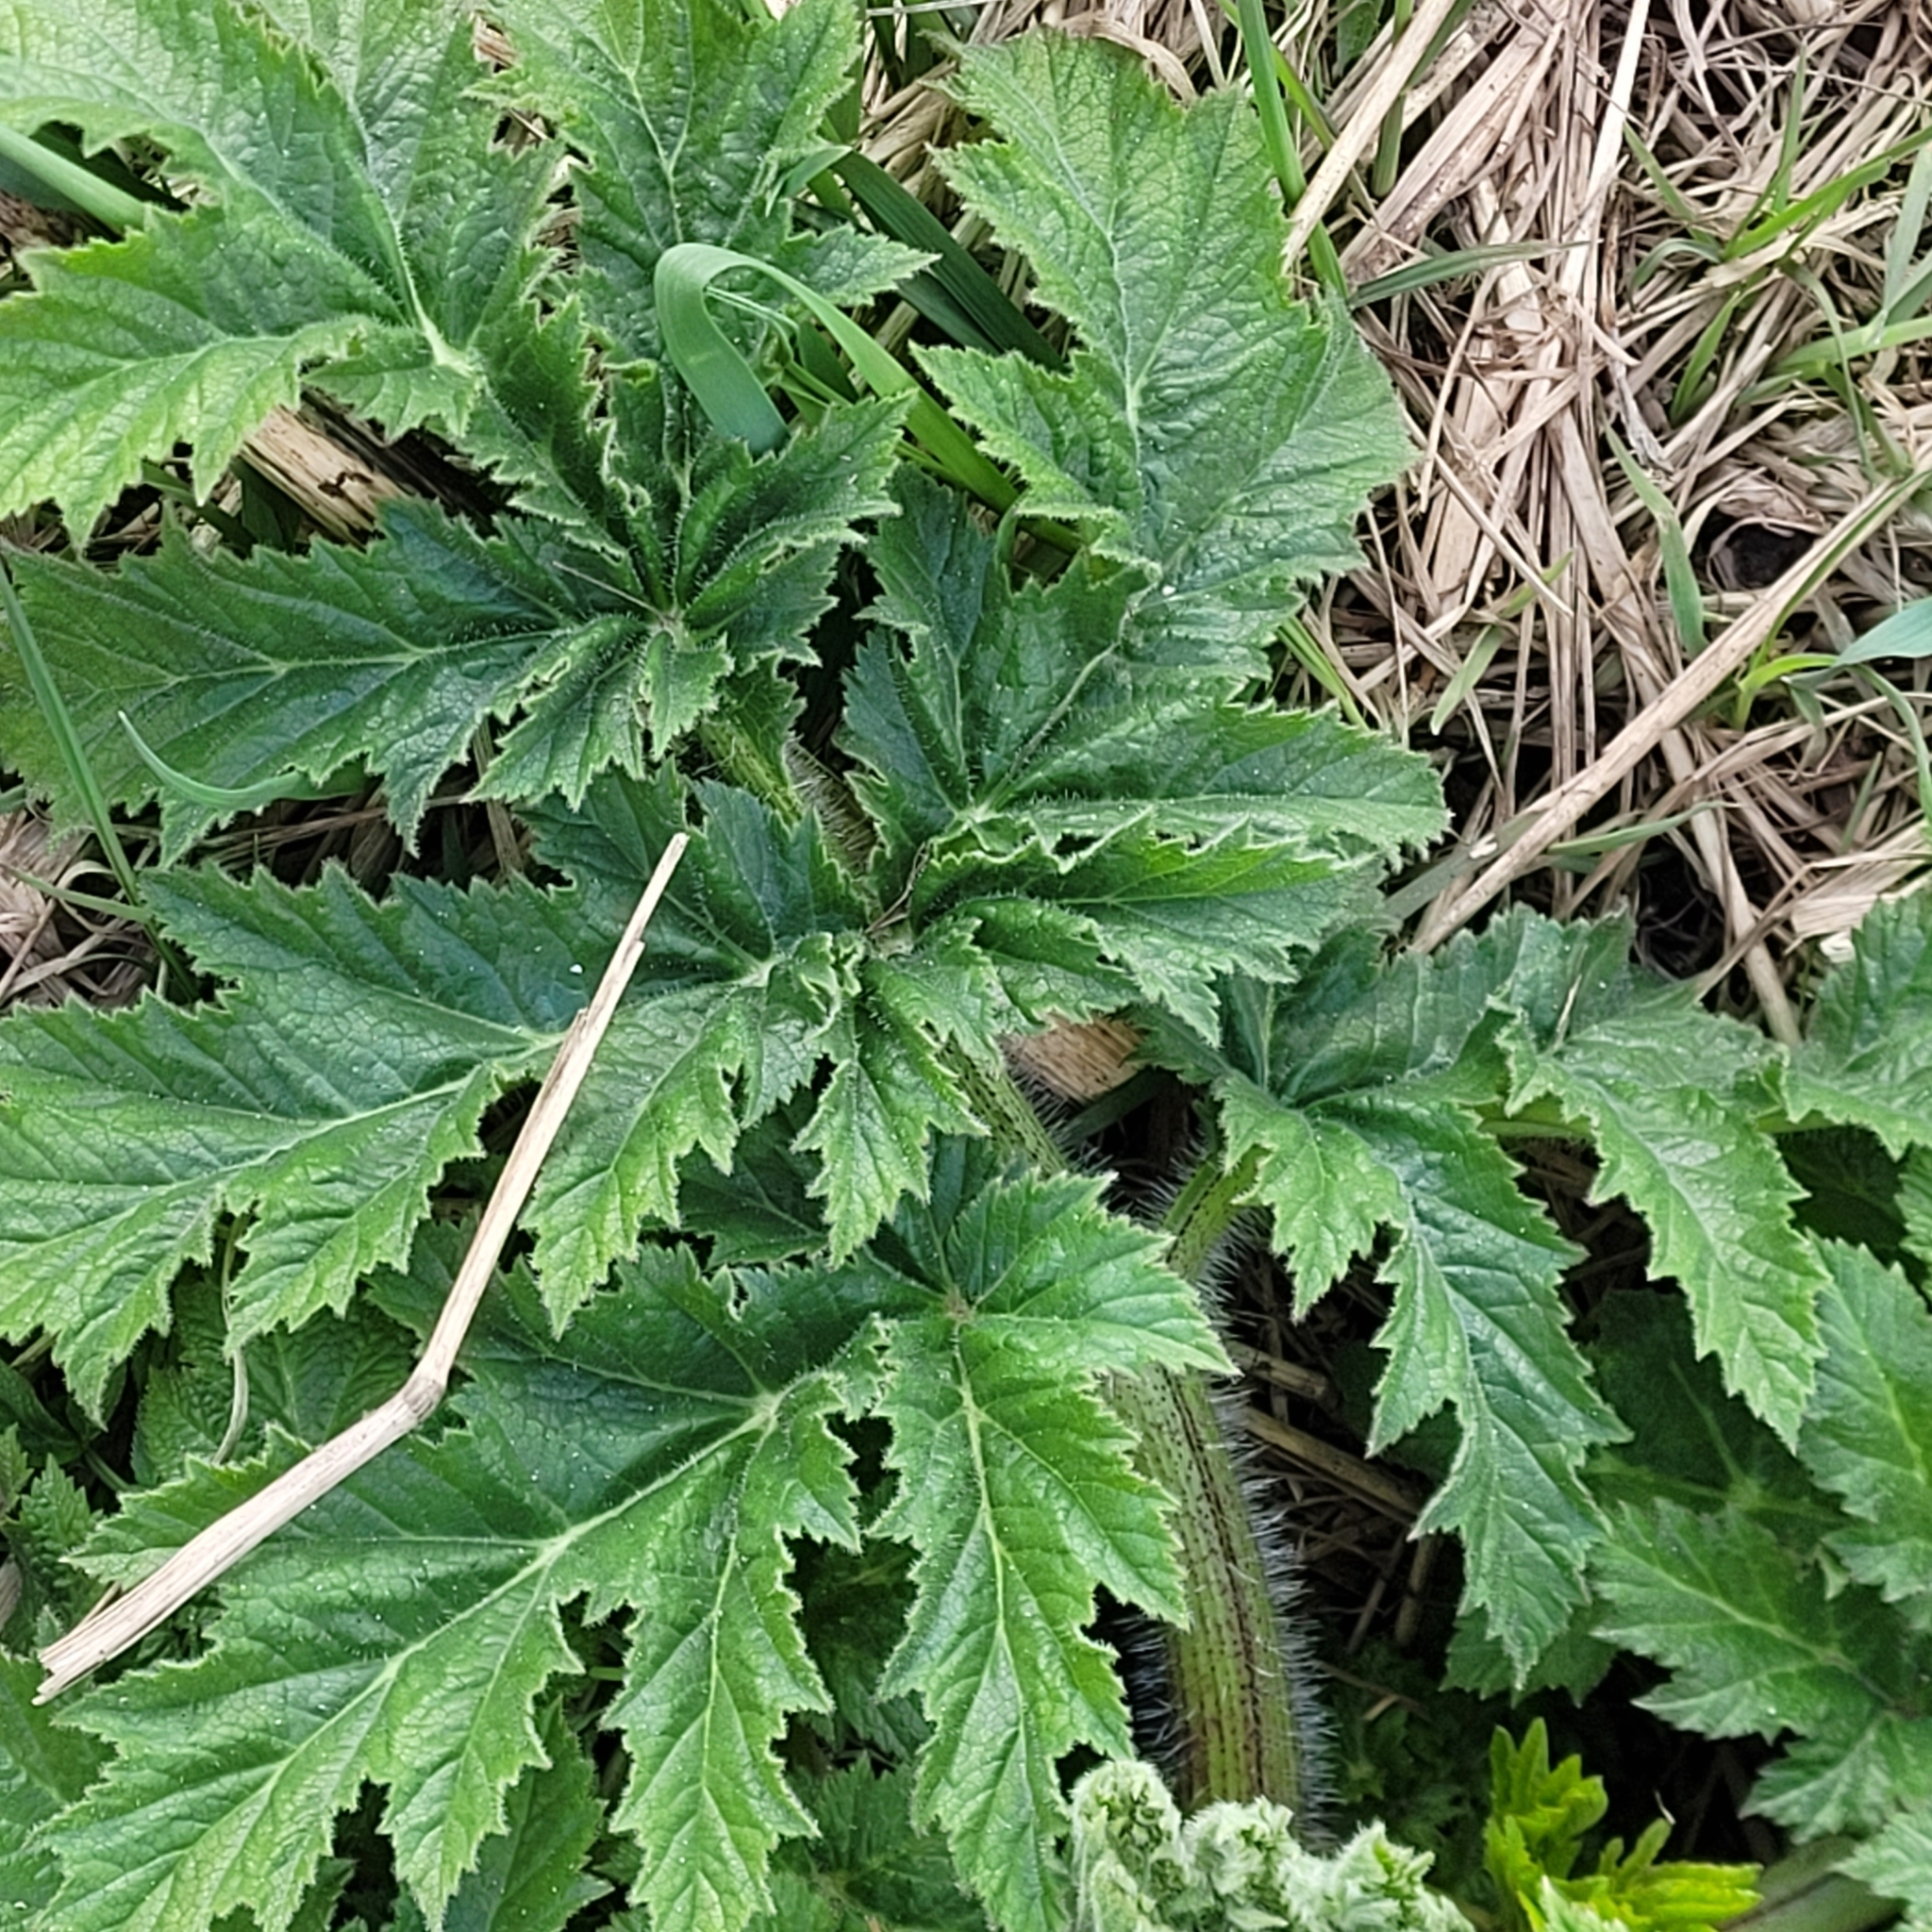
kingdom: Plantae
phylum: Tracheophyta
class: Magnoliopsida
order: Apiales
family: Apiaceae
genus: Heracleum
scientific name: Heracleum sosnowskyi
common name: Sosnowsky's hogweed
